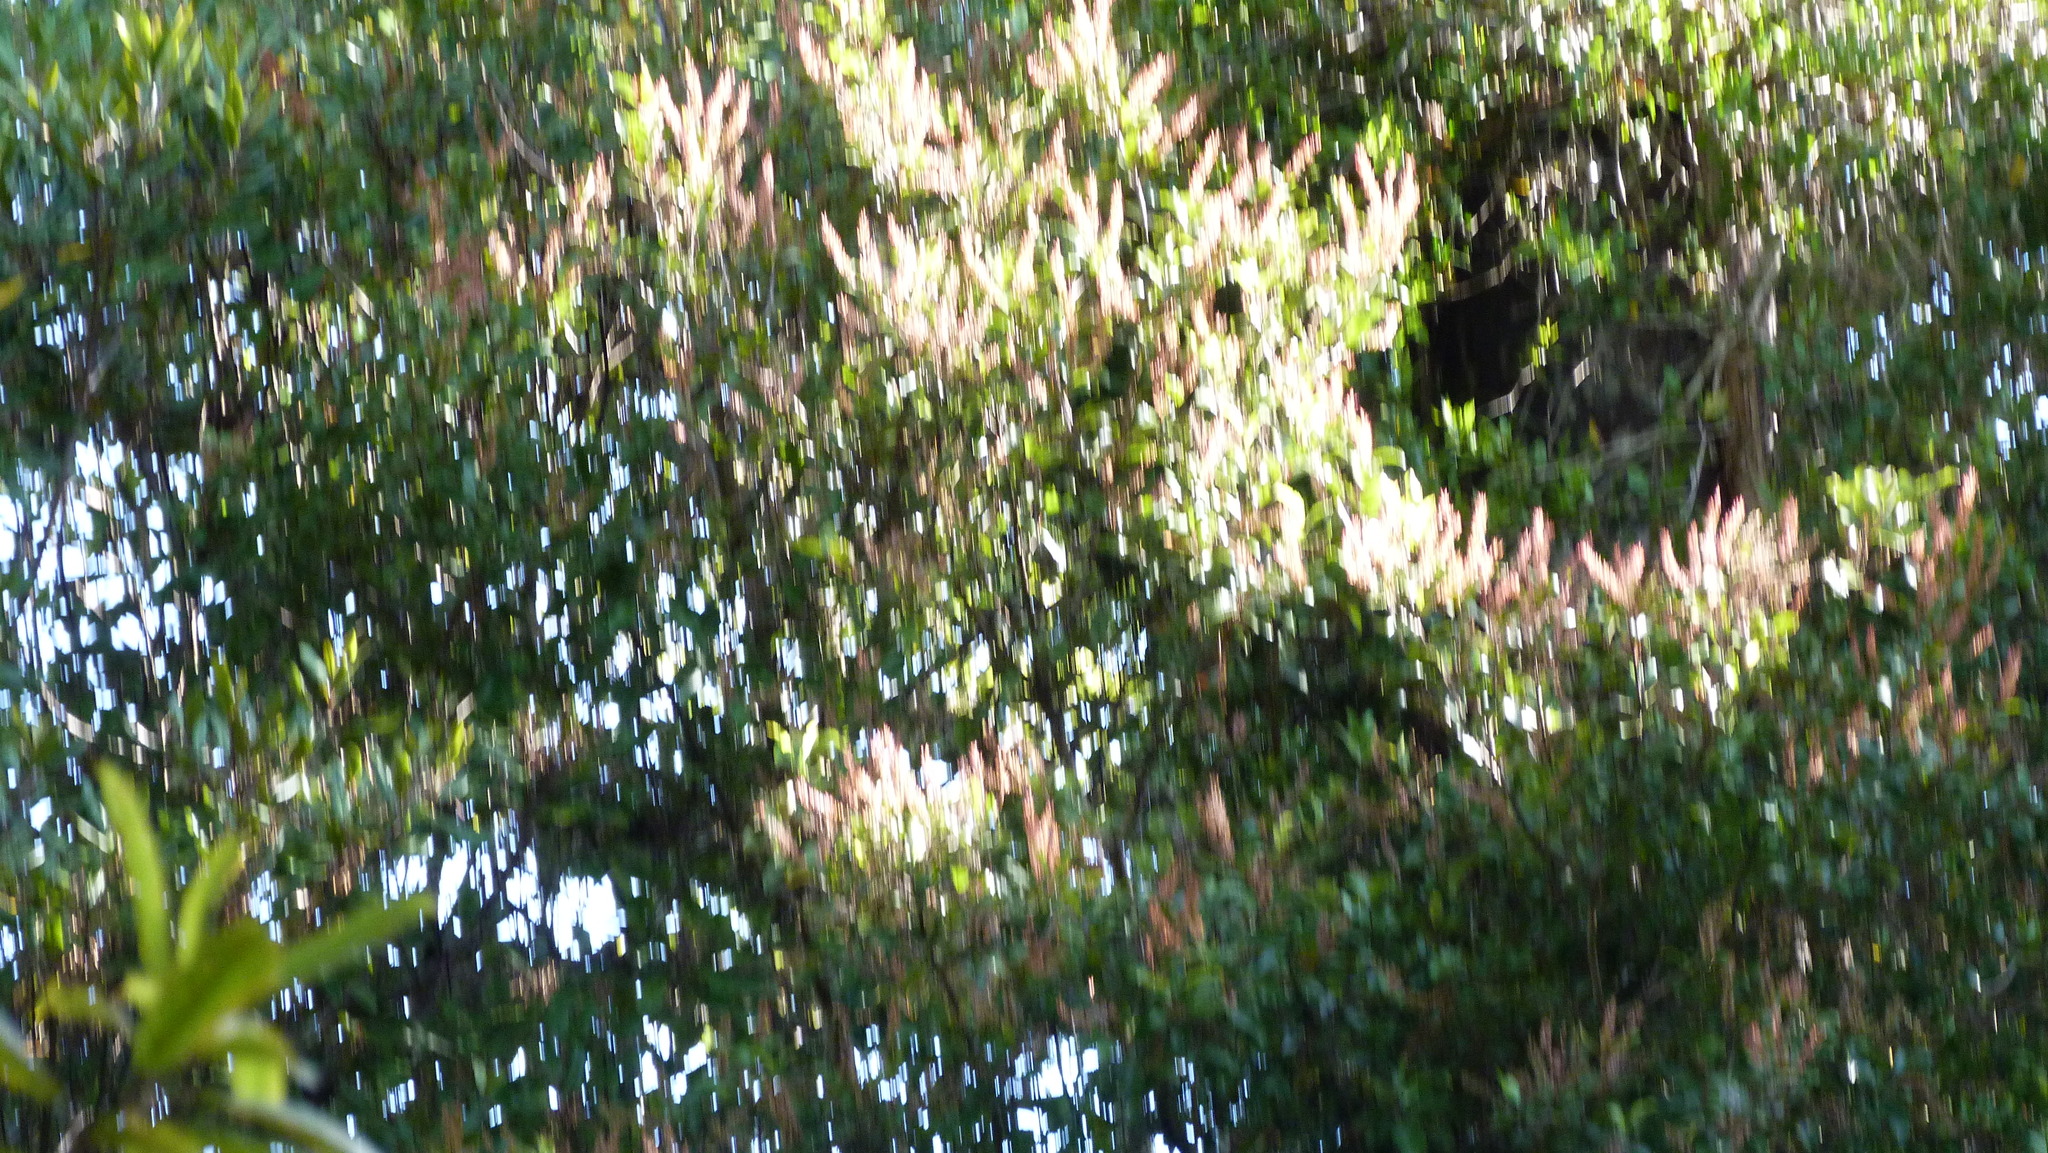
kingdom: Plantae
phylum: Tracheophyta
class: Magnoliopsida
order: Oxalidales
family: Cunoniaceae
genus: Pterophylla
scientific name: Pterophylla racemosa
